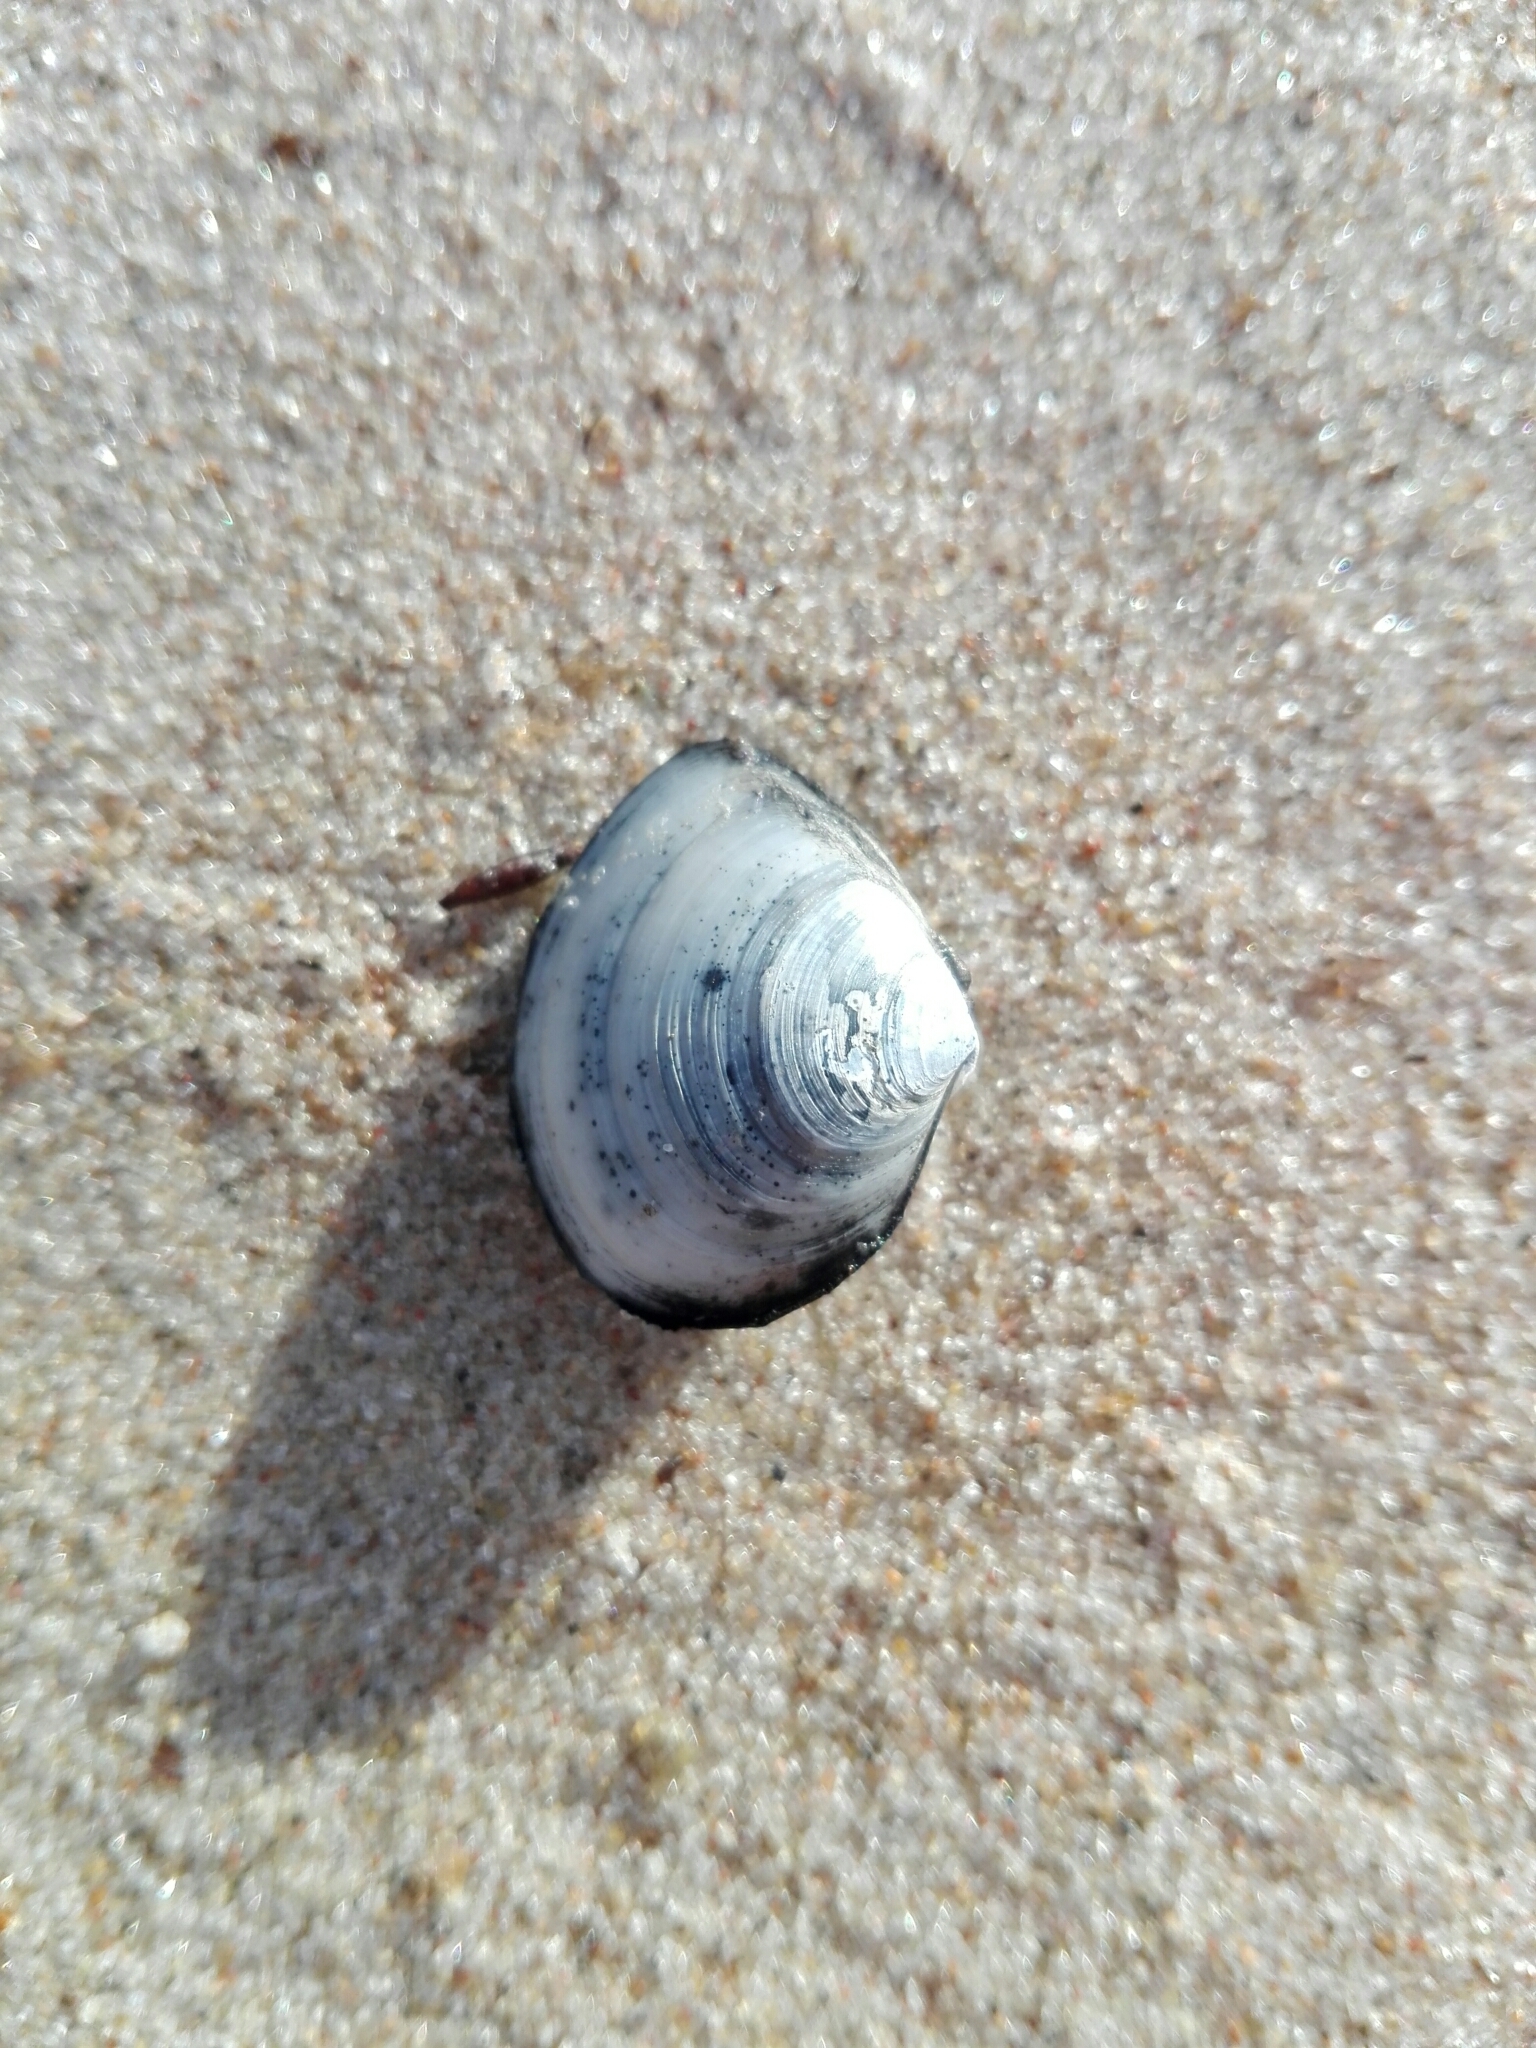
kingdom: Animalia
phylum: Mollusca
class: Bivalvia
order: Cardiida
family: Tellinidae
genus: Macoma
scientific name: Macoma balthica
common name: Baltic tellin
